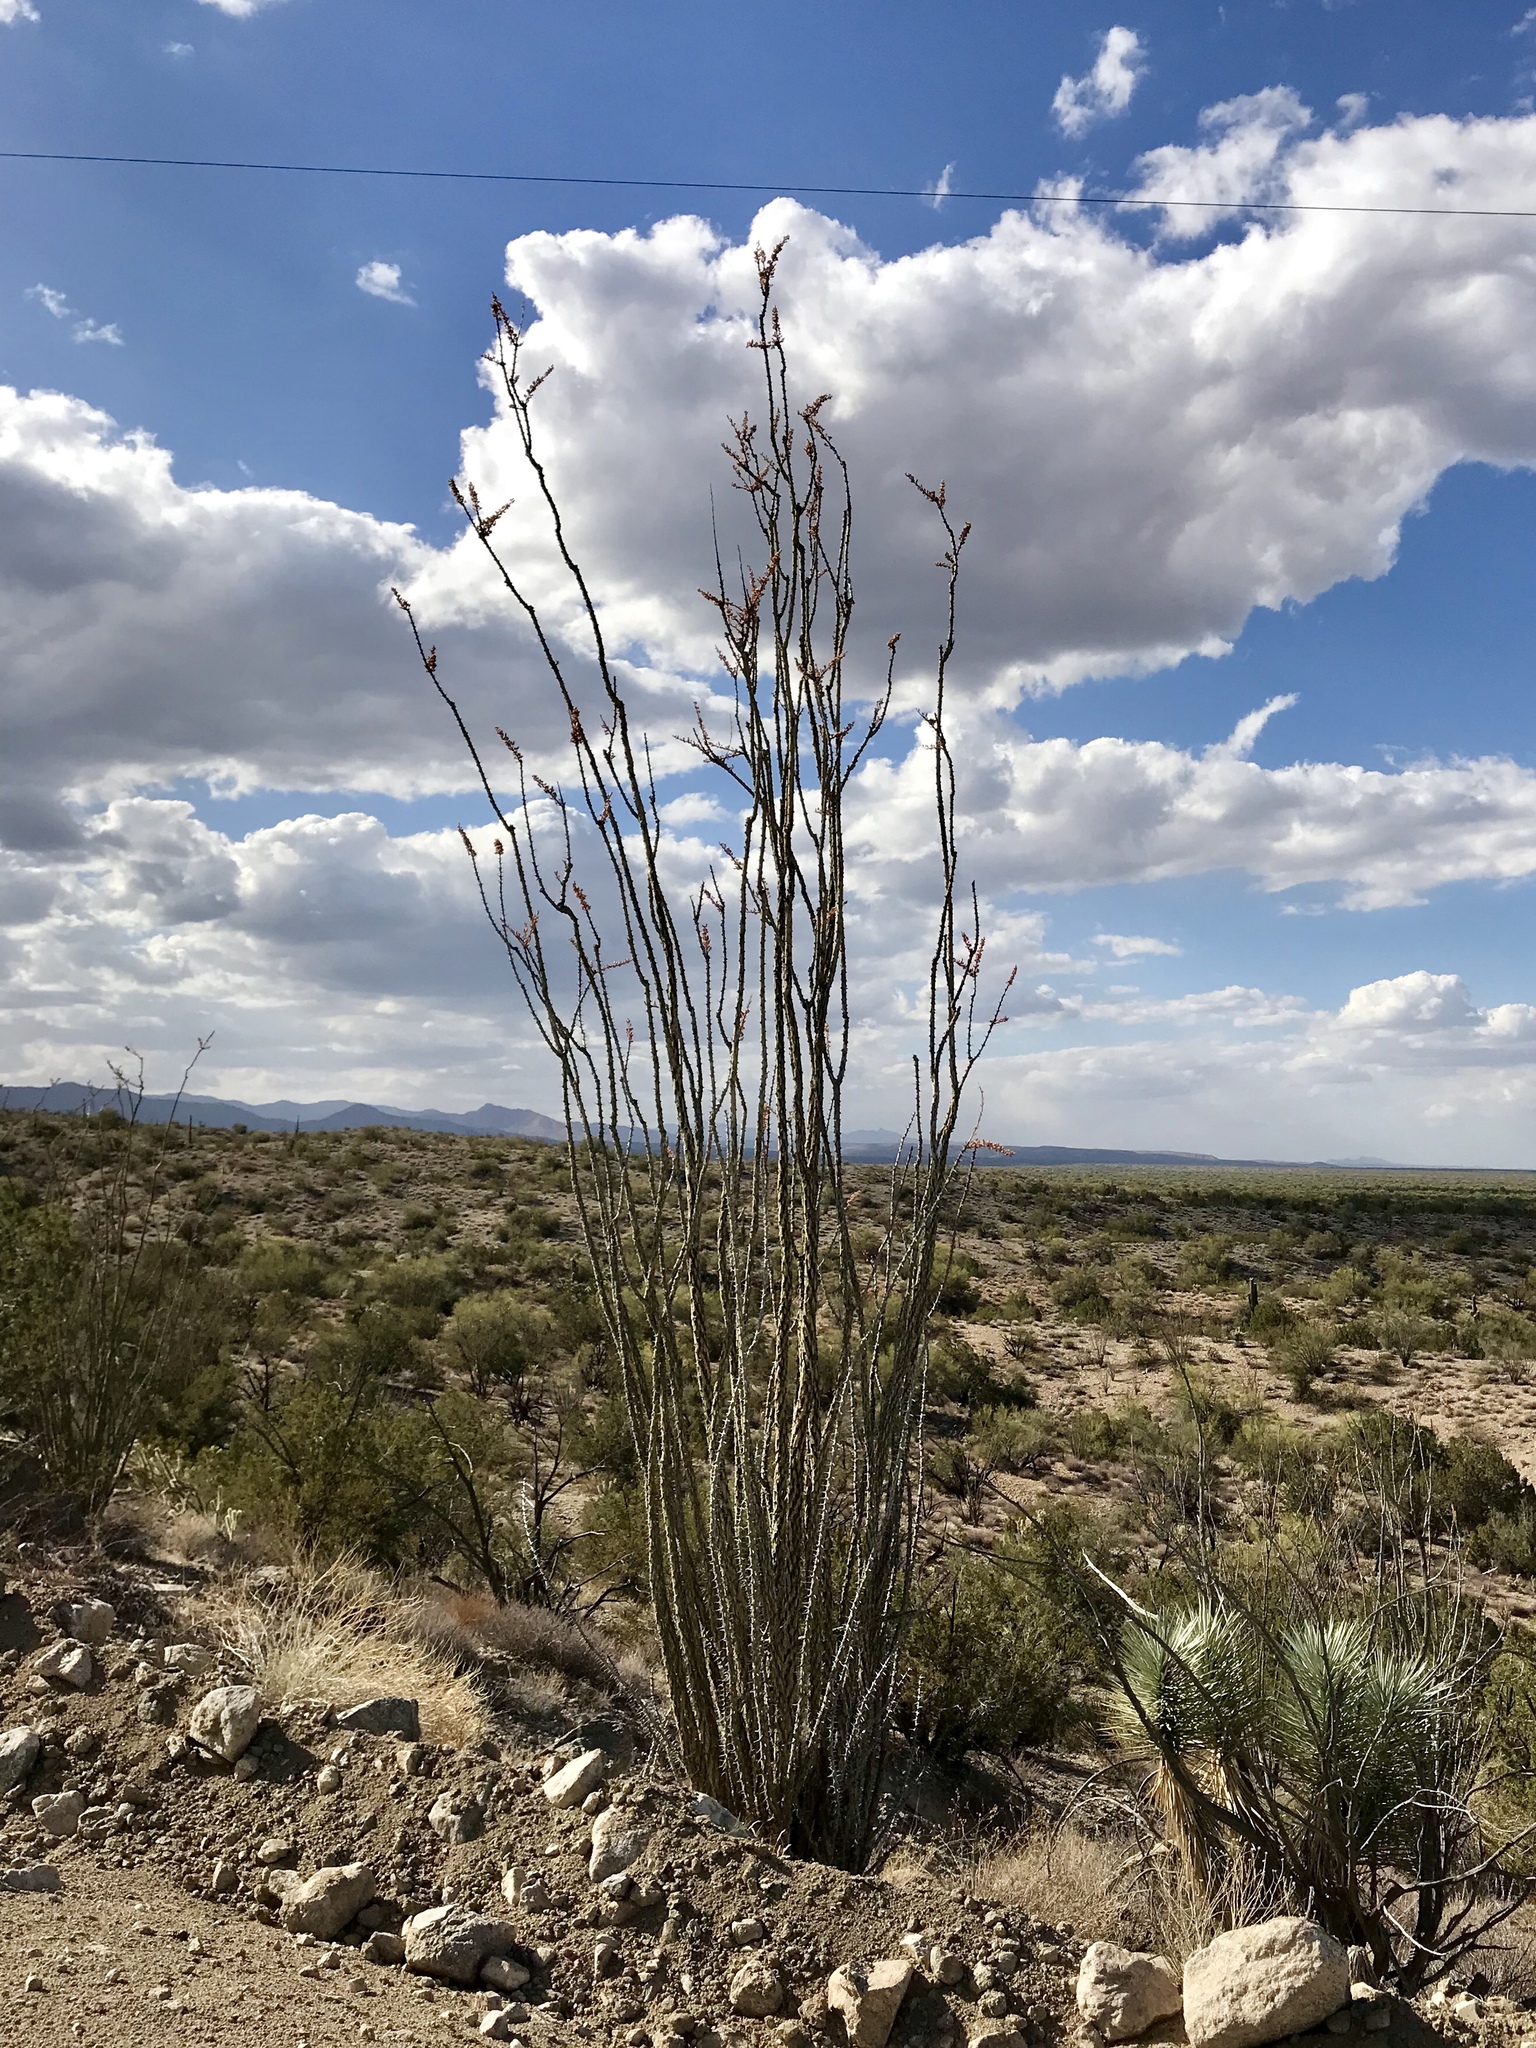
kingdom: Plantae
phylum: Tracheophyta
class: Magnoliopsida
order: Ericales
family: Fouquieriaceae
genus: Fouquieria
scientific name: Fouquieria splendens
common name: Vine-cactus
